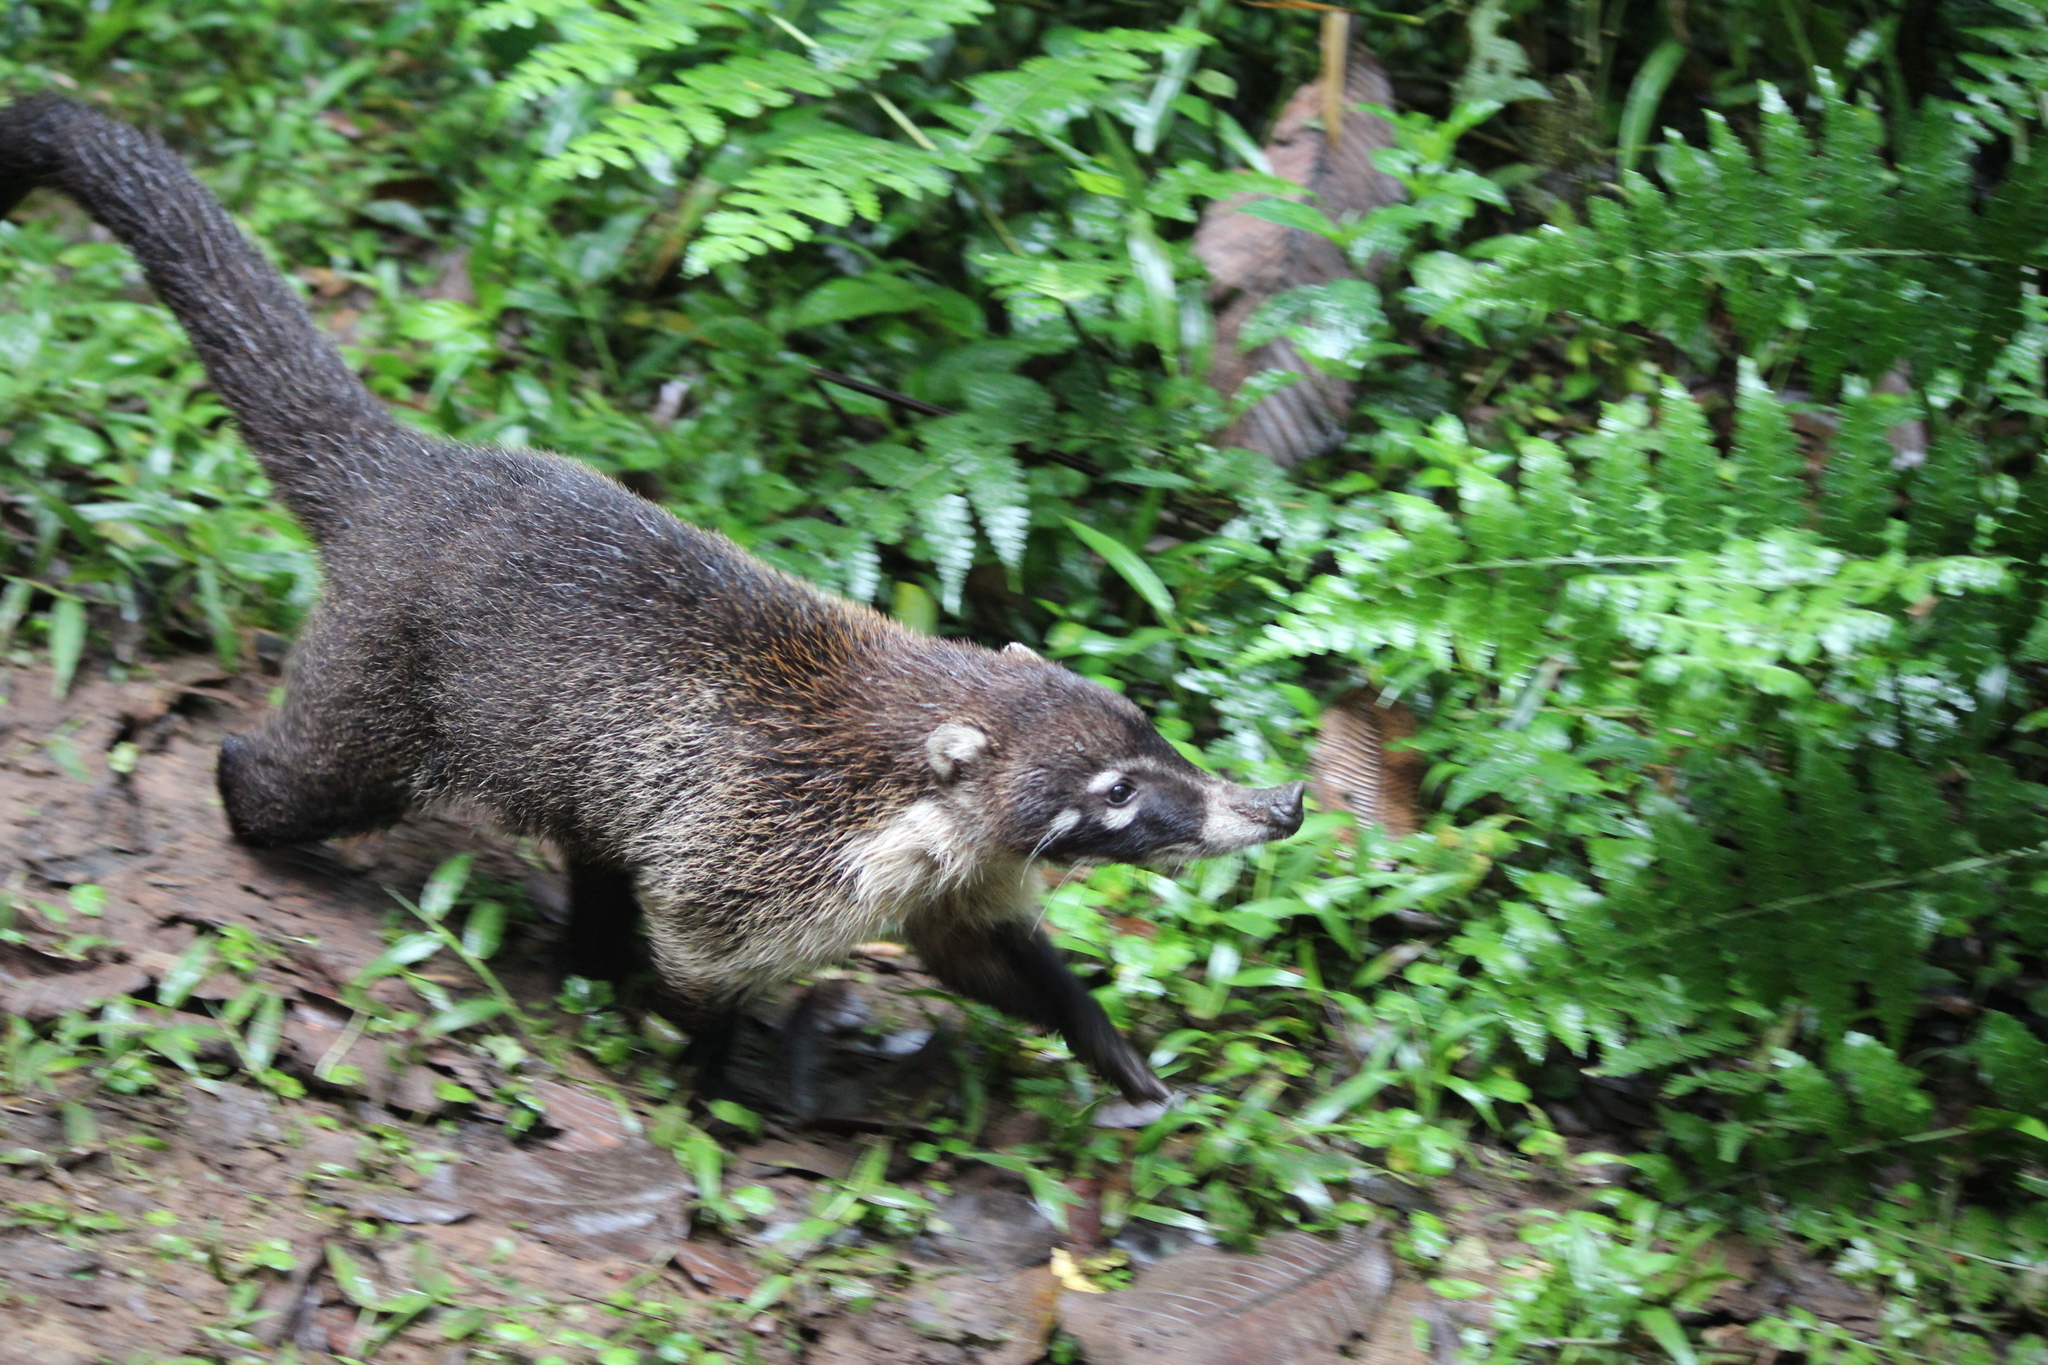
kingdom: Animalia
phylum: Chordata
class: Mammalia
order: Carnivora
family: Procyonidae
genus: Nasua
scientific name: Nasua narica
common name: White-nosed coati
